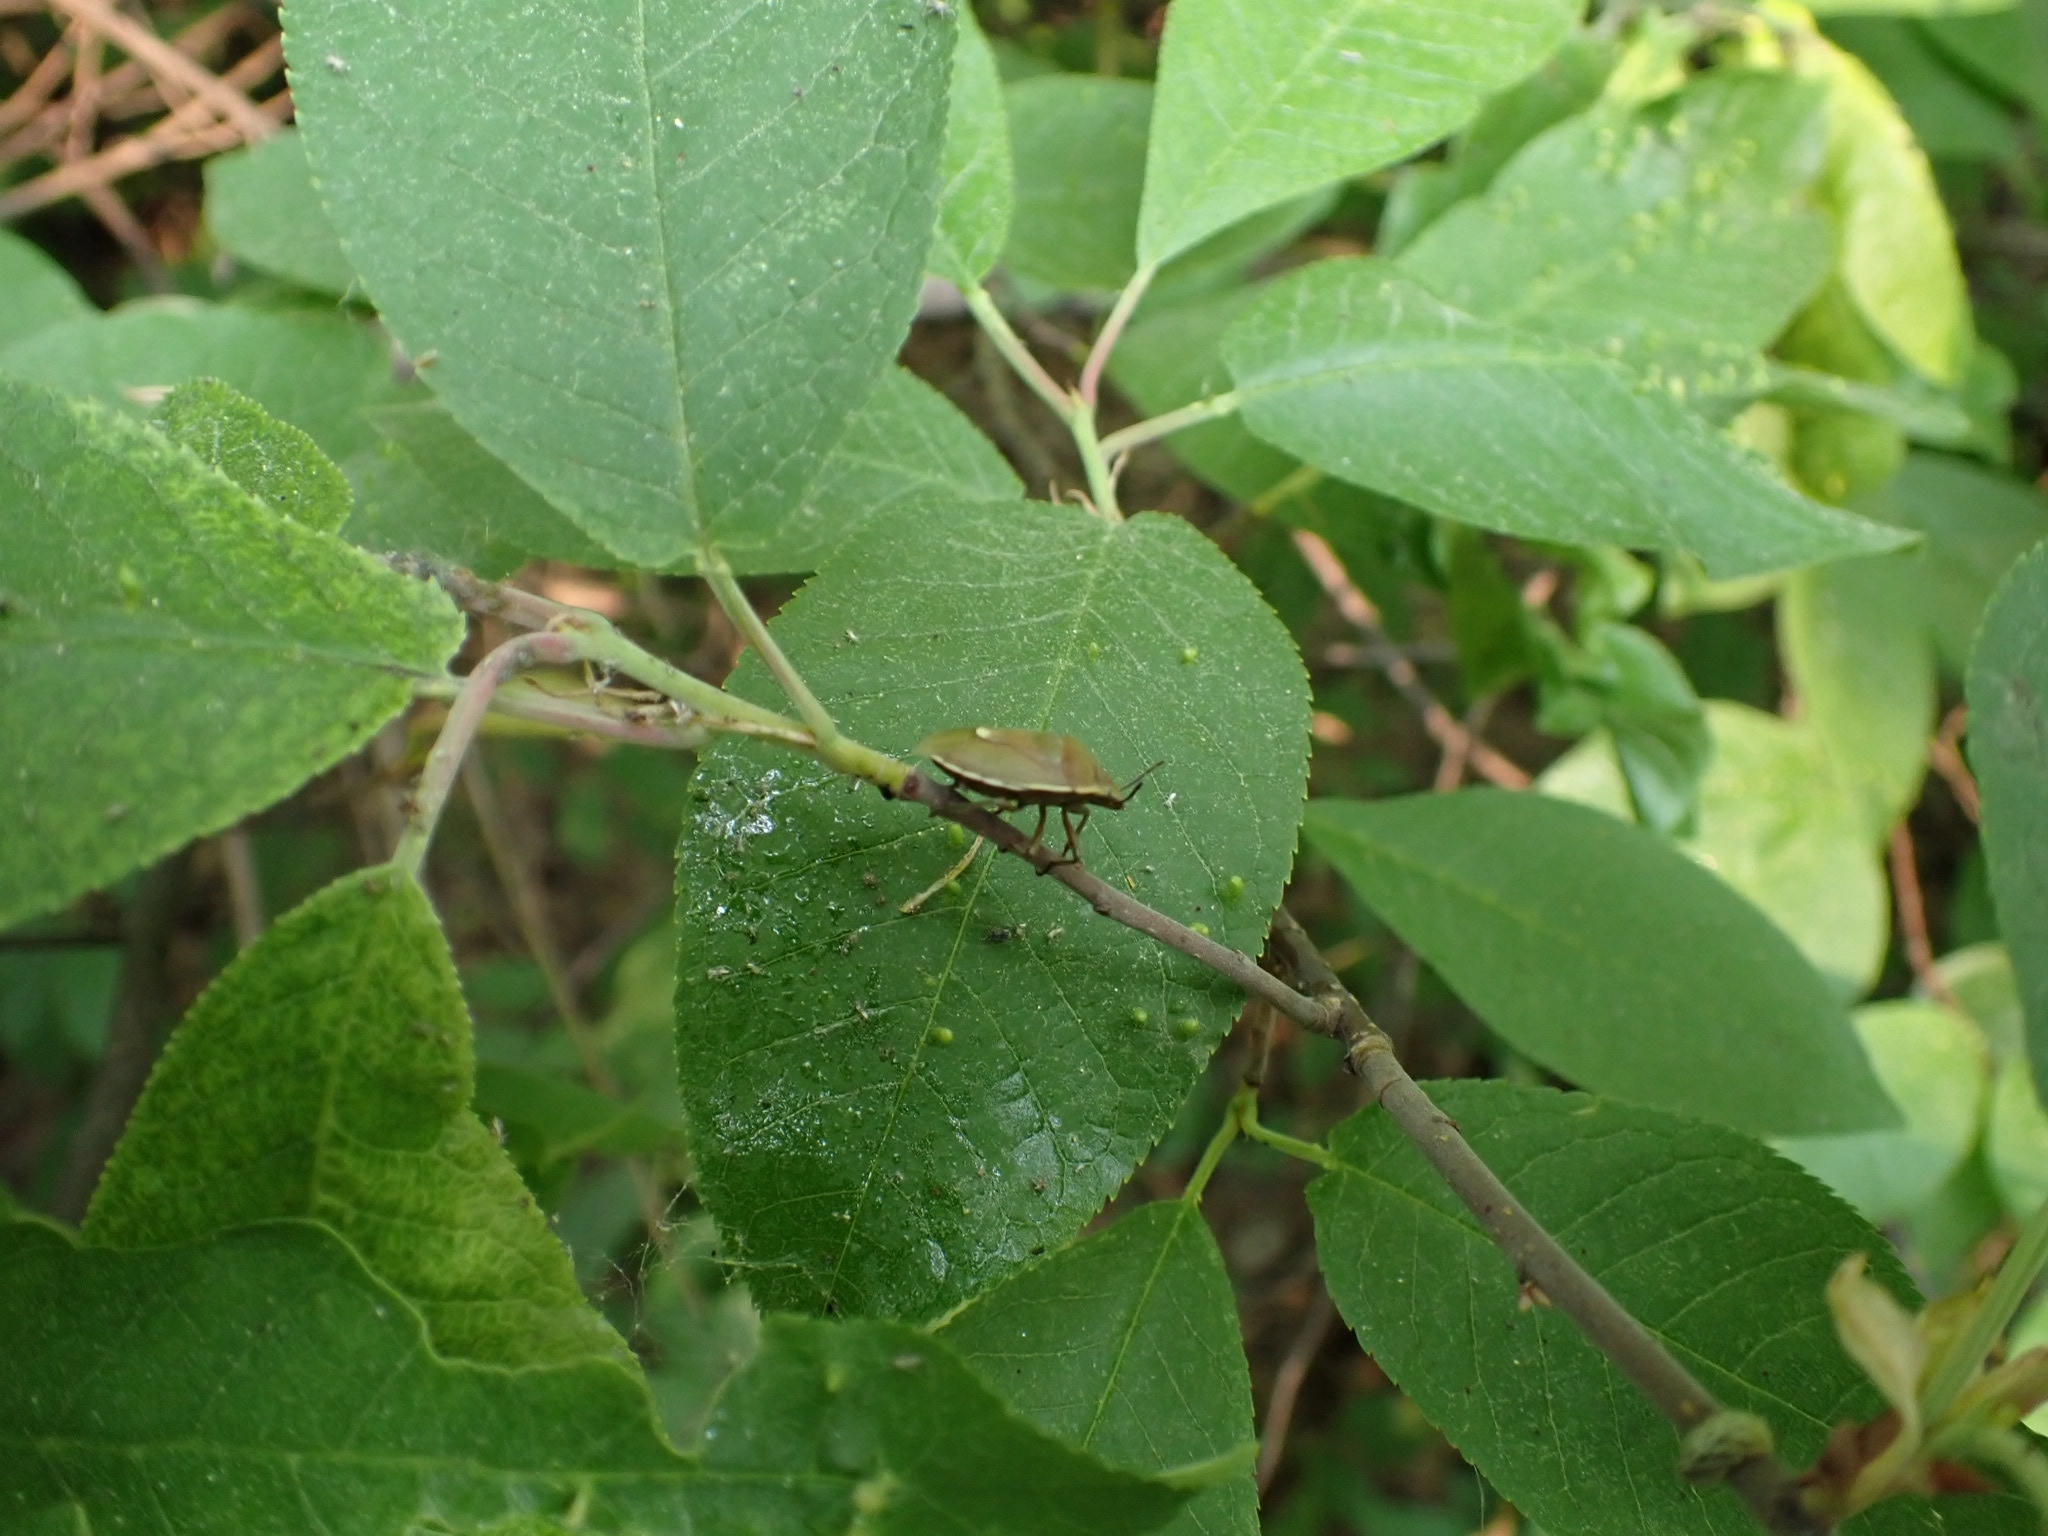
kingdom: Animalia
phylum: Arthropoda
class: Insecta
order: Hemiptera
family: Pentatomidae
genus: Chlorochroa
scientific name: Chlorochroa pinicola
